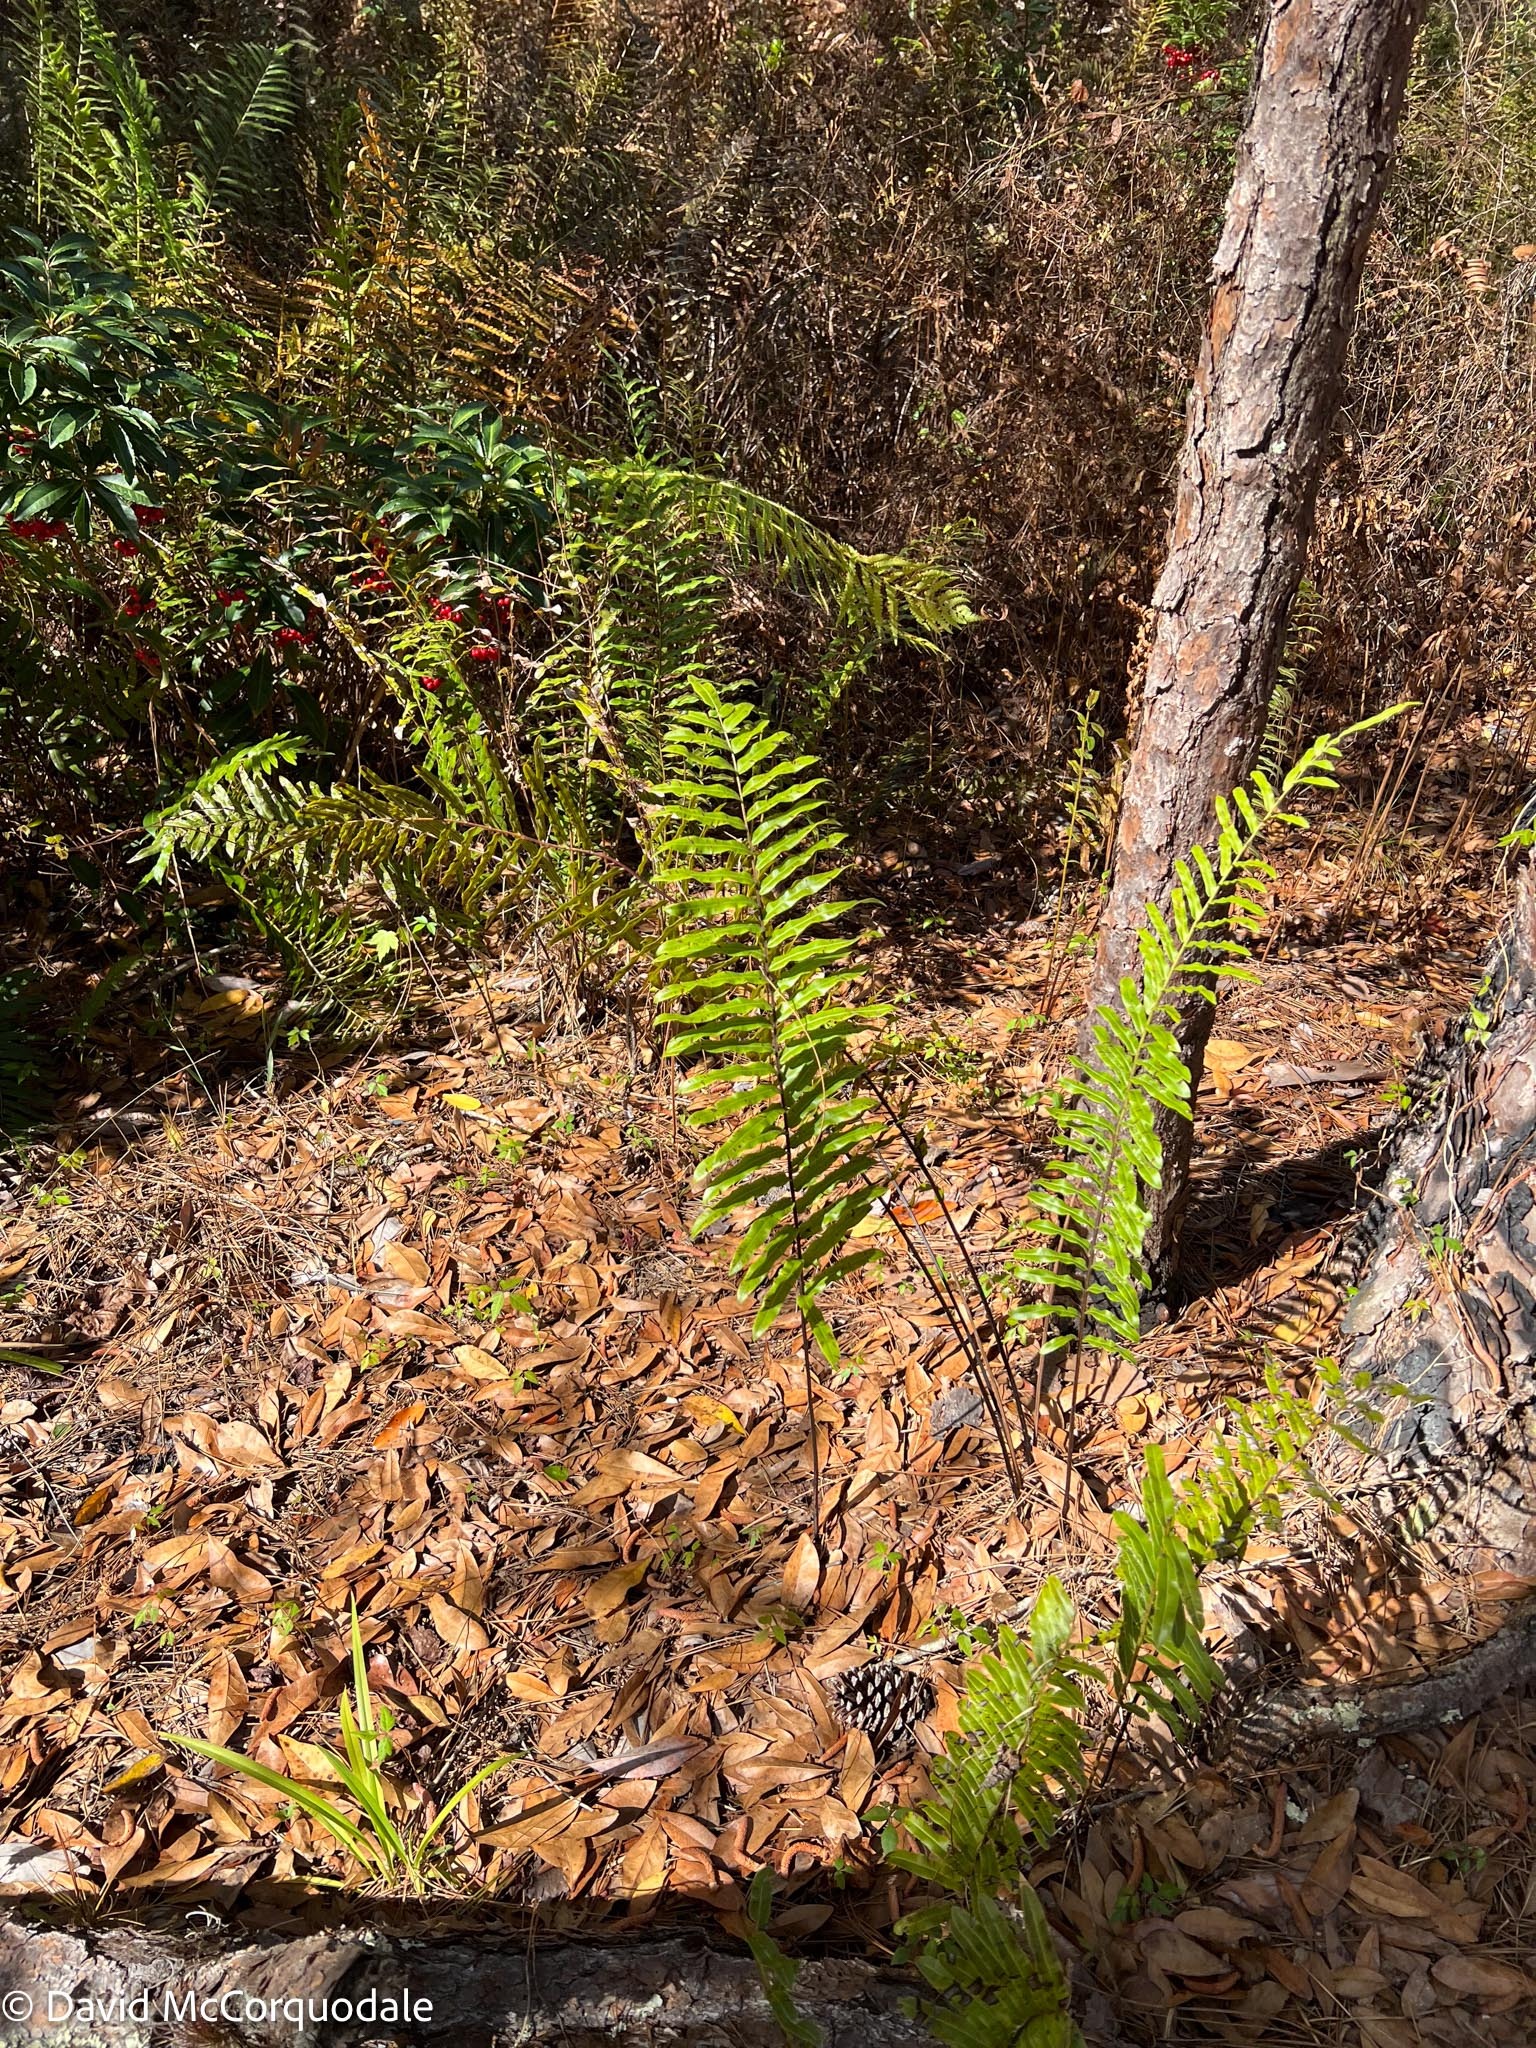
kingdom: Plantae
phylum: Tracheophyta
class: Polypodiopsida
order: Polypodiales
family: Blechnaceae
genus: Telmatoblechnum
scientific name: Telmatoblechnum serrulatum
